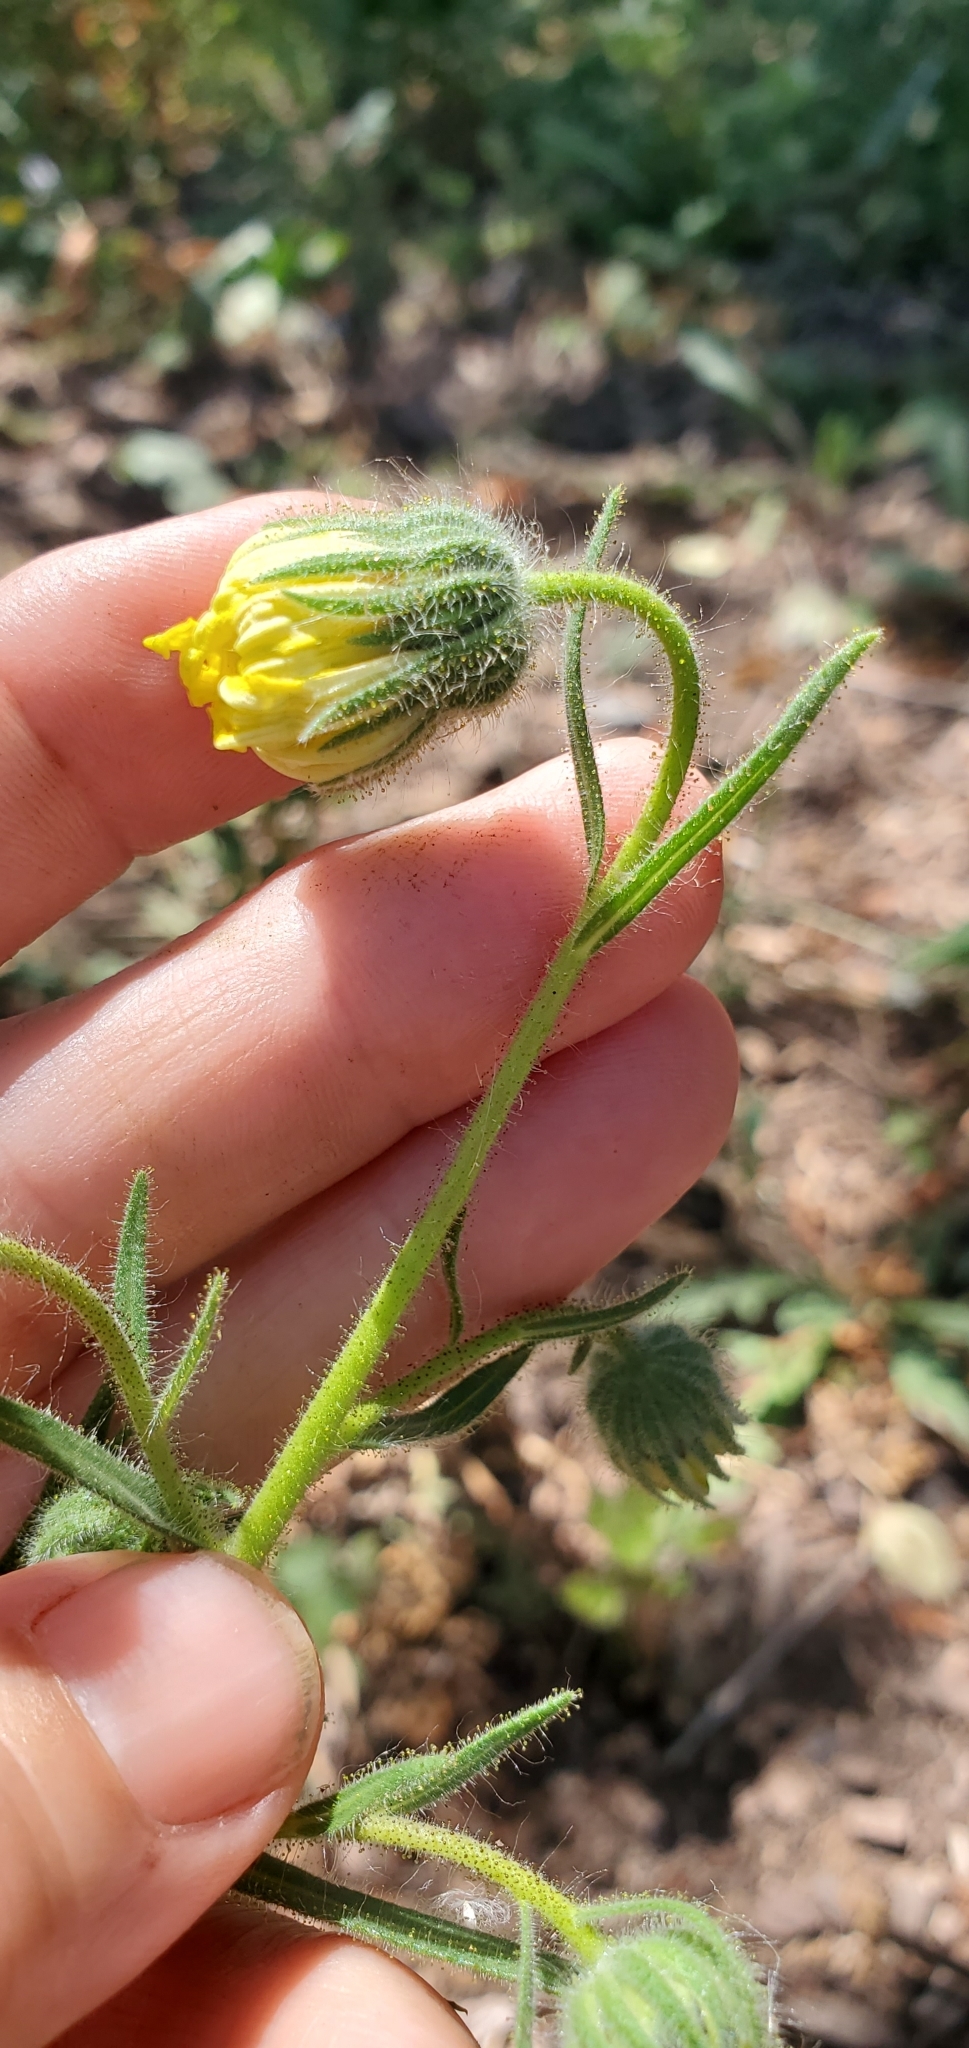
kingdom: Plantae
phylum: Tracheophyta
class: Magnoliopsida
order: Asterales
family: Asteraceae
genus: Madia
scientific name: Madia elegans
